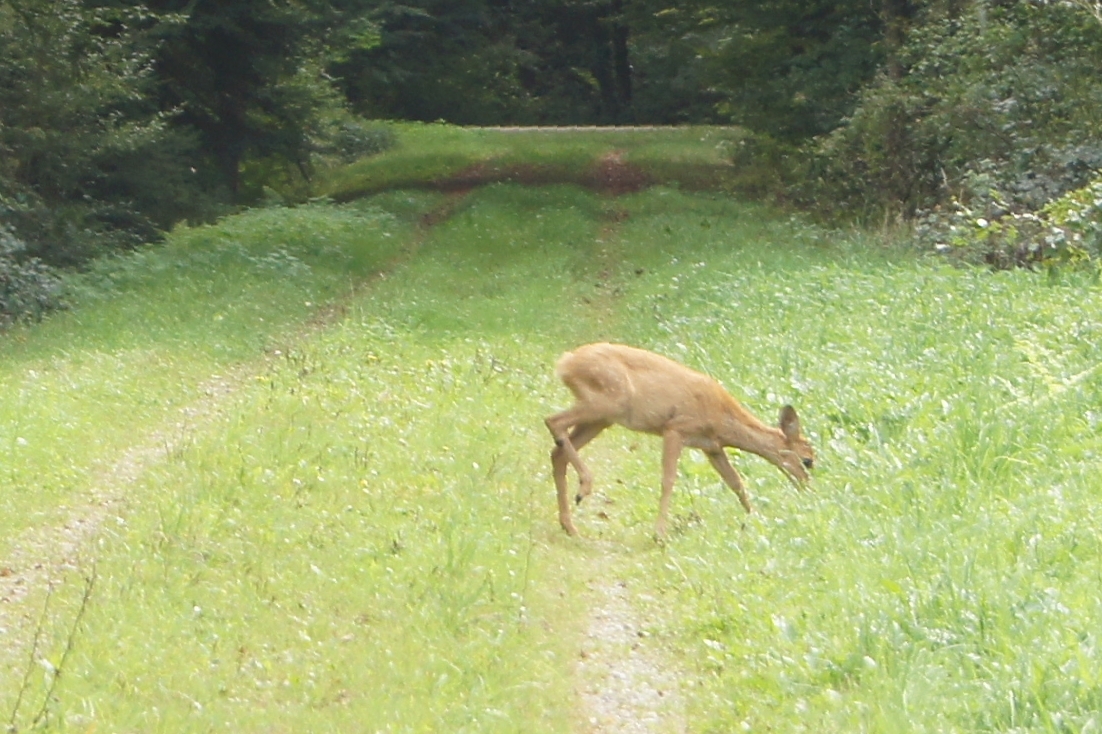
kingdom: Animalia
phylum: Chordata
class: Mammalia
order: Artiodactyla
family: Cervidae
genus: Capreolus
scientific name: Capreolus capreolus
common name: Western roe deer
